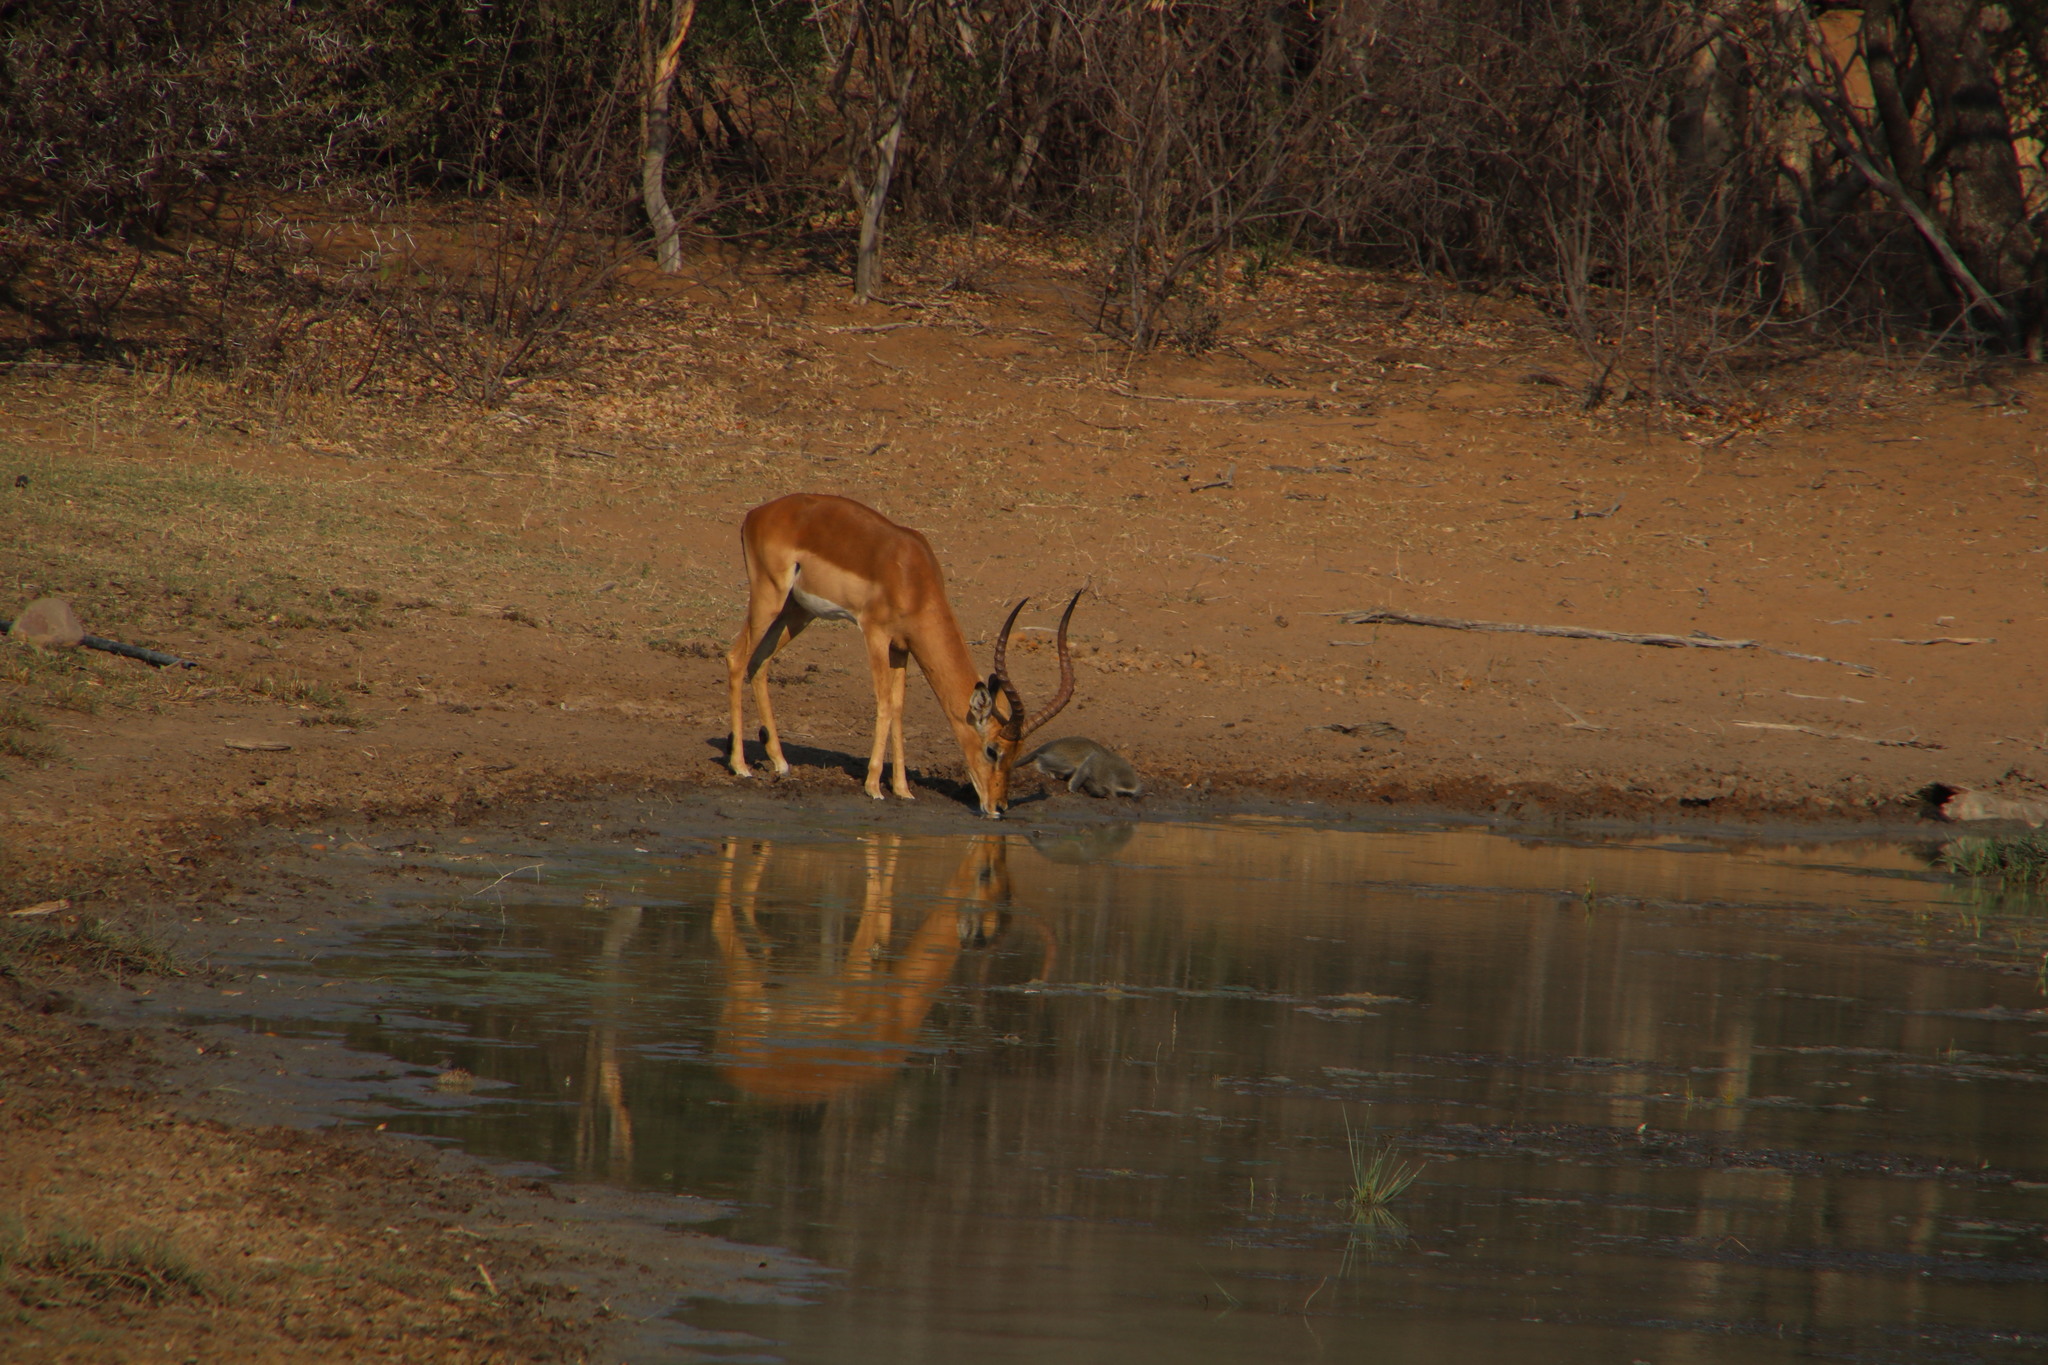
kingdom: Animalia
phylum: Chordata
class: Mammalia
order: Artiodactyla
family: Bovidae
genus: Aepyceros
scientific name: Aepyceros melampus
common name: Impala
